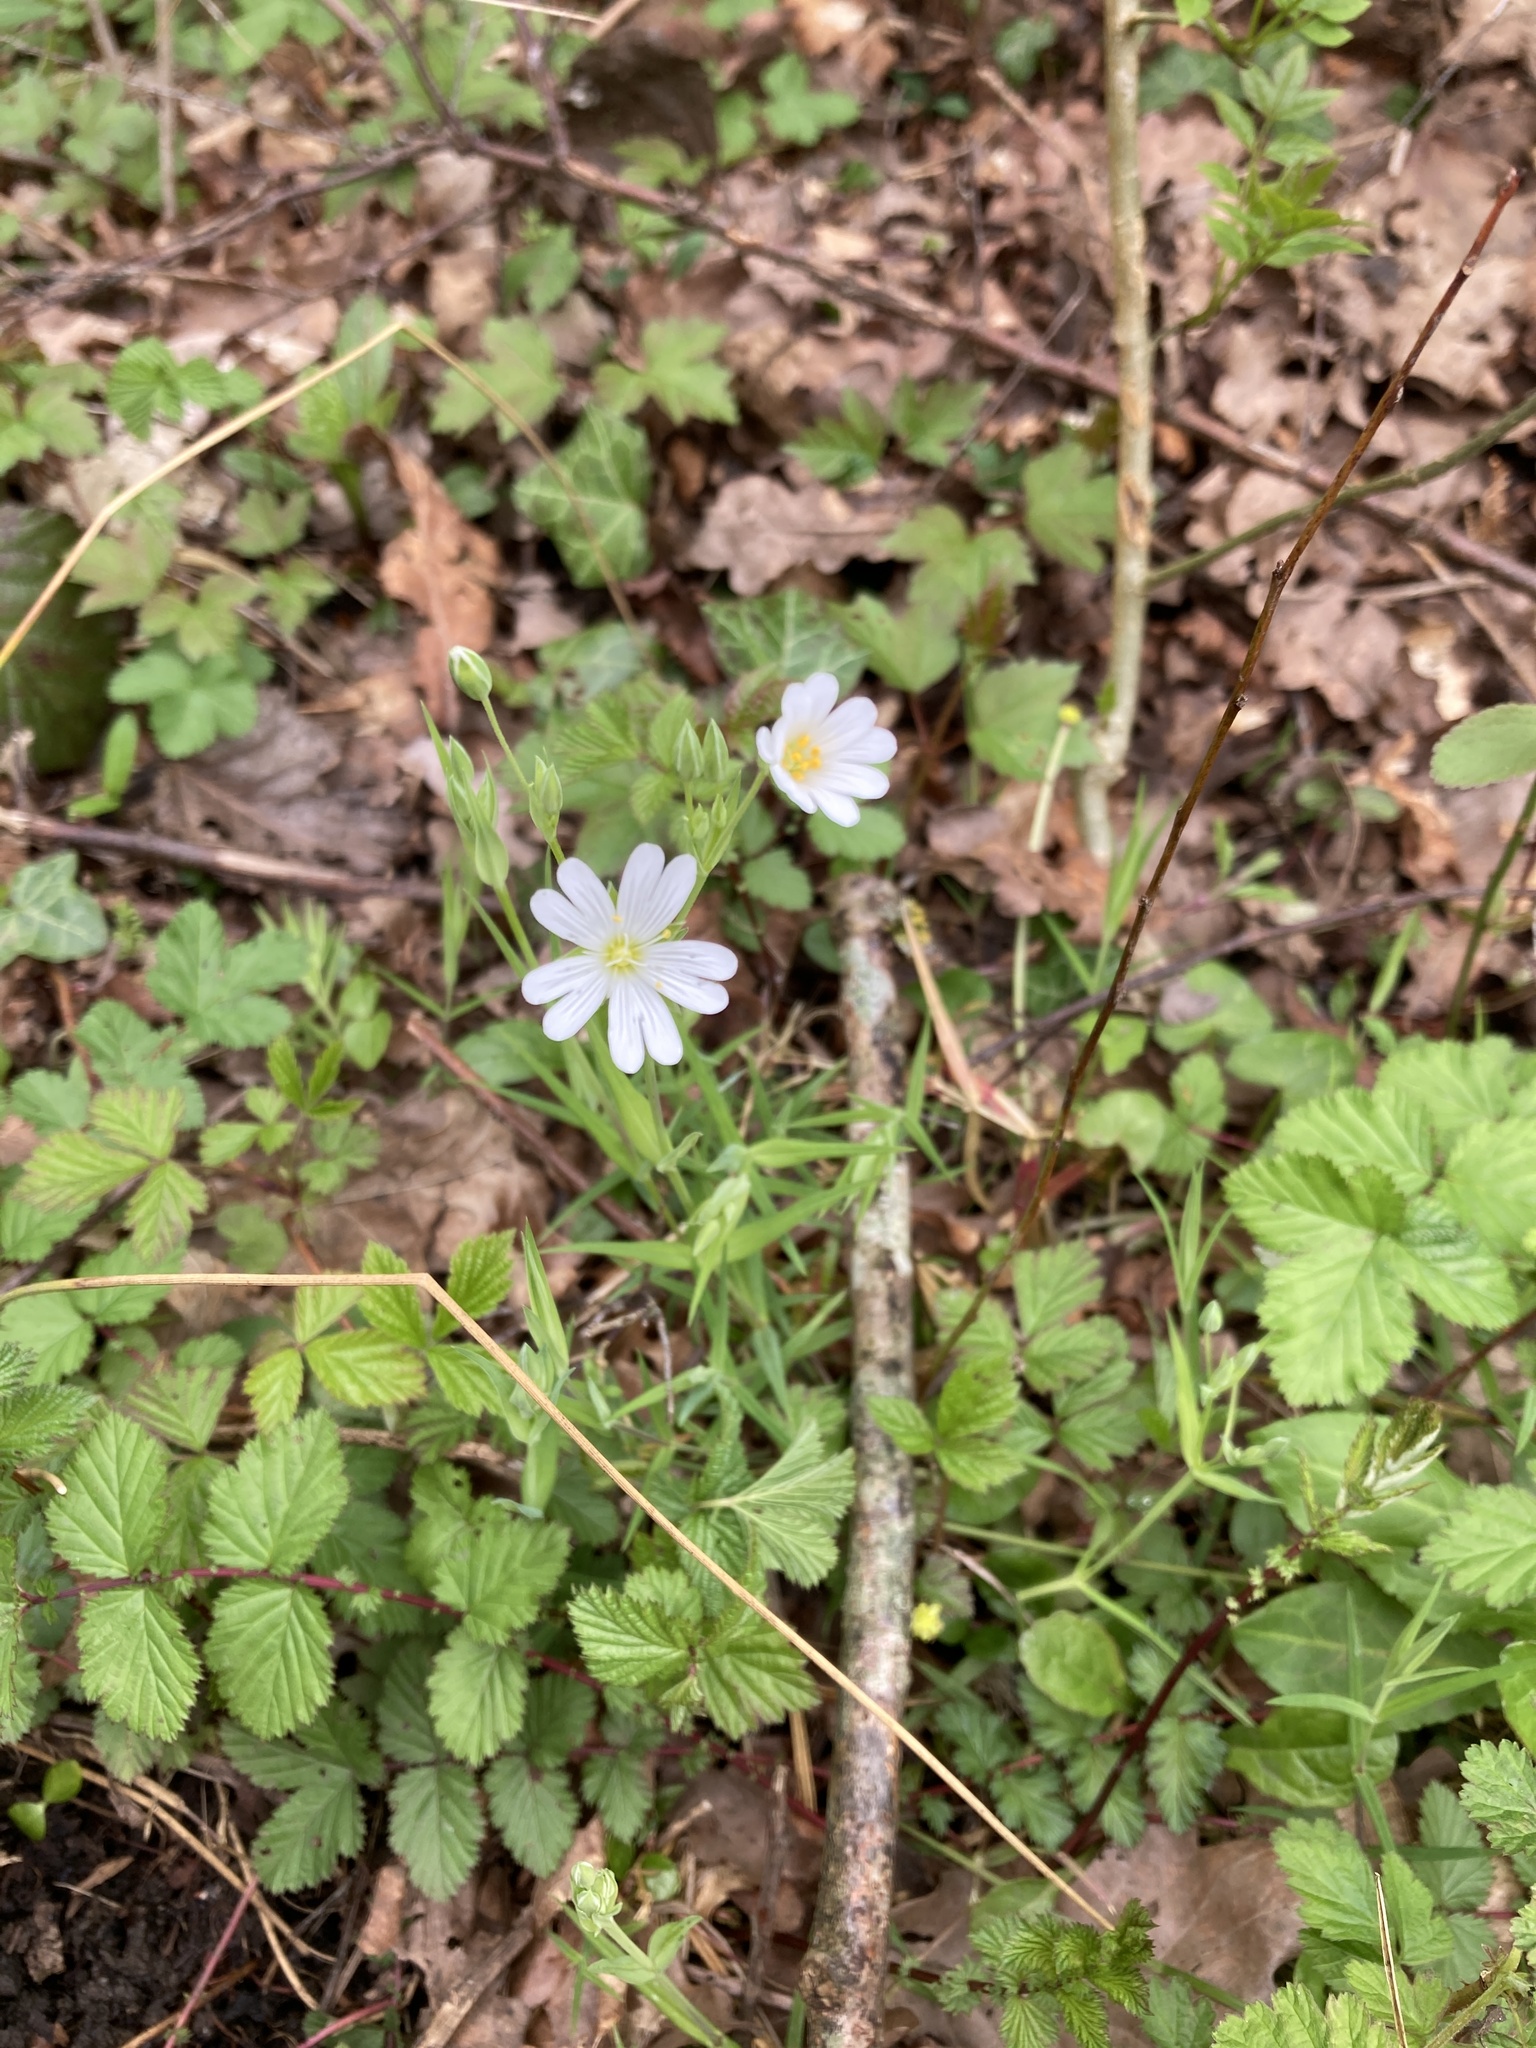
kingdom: Plantae
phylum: Tracheophyta
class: Magnoliopsida
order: Caryophyllales
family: Caryophyllaceae
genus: Rabelera
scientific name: Rabelera holostea
